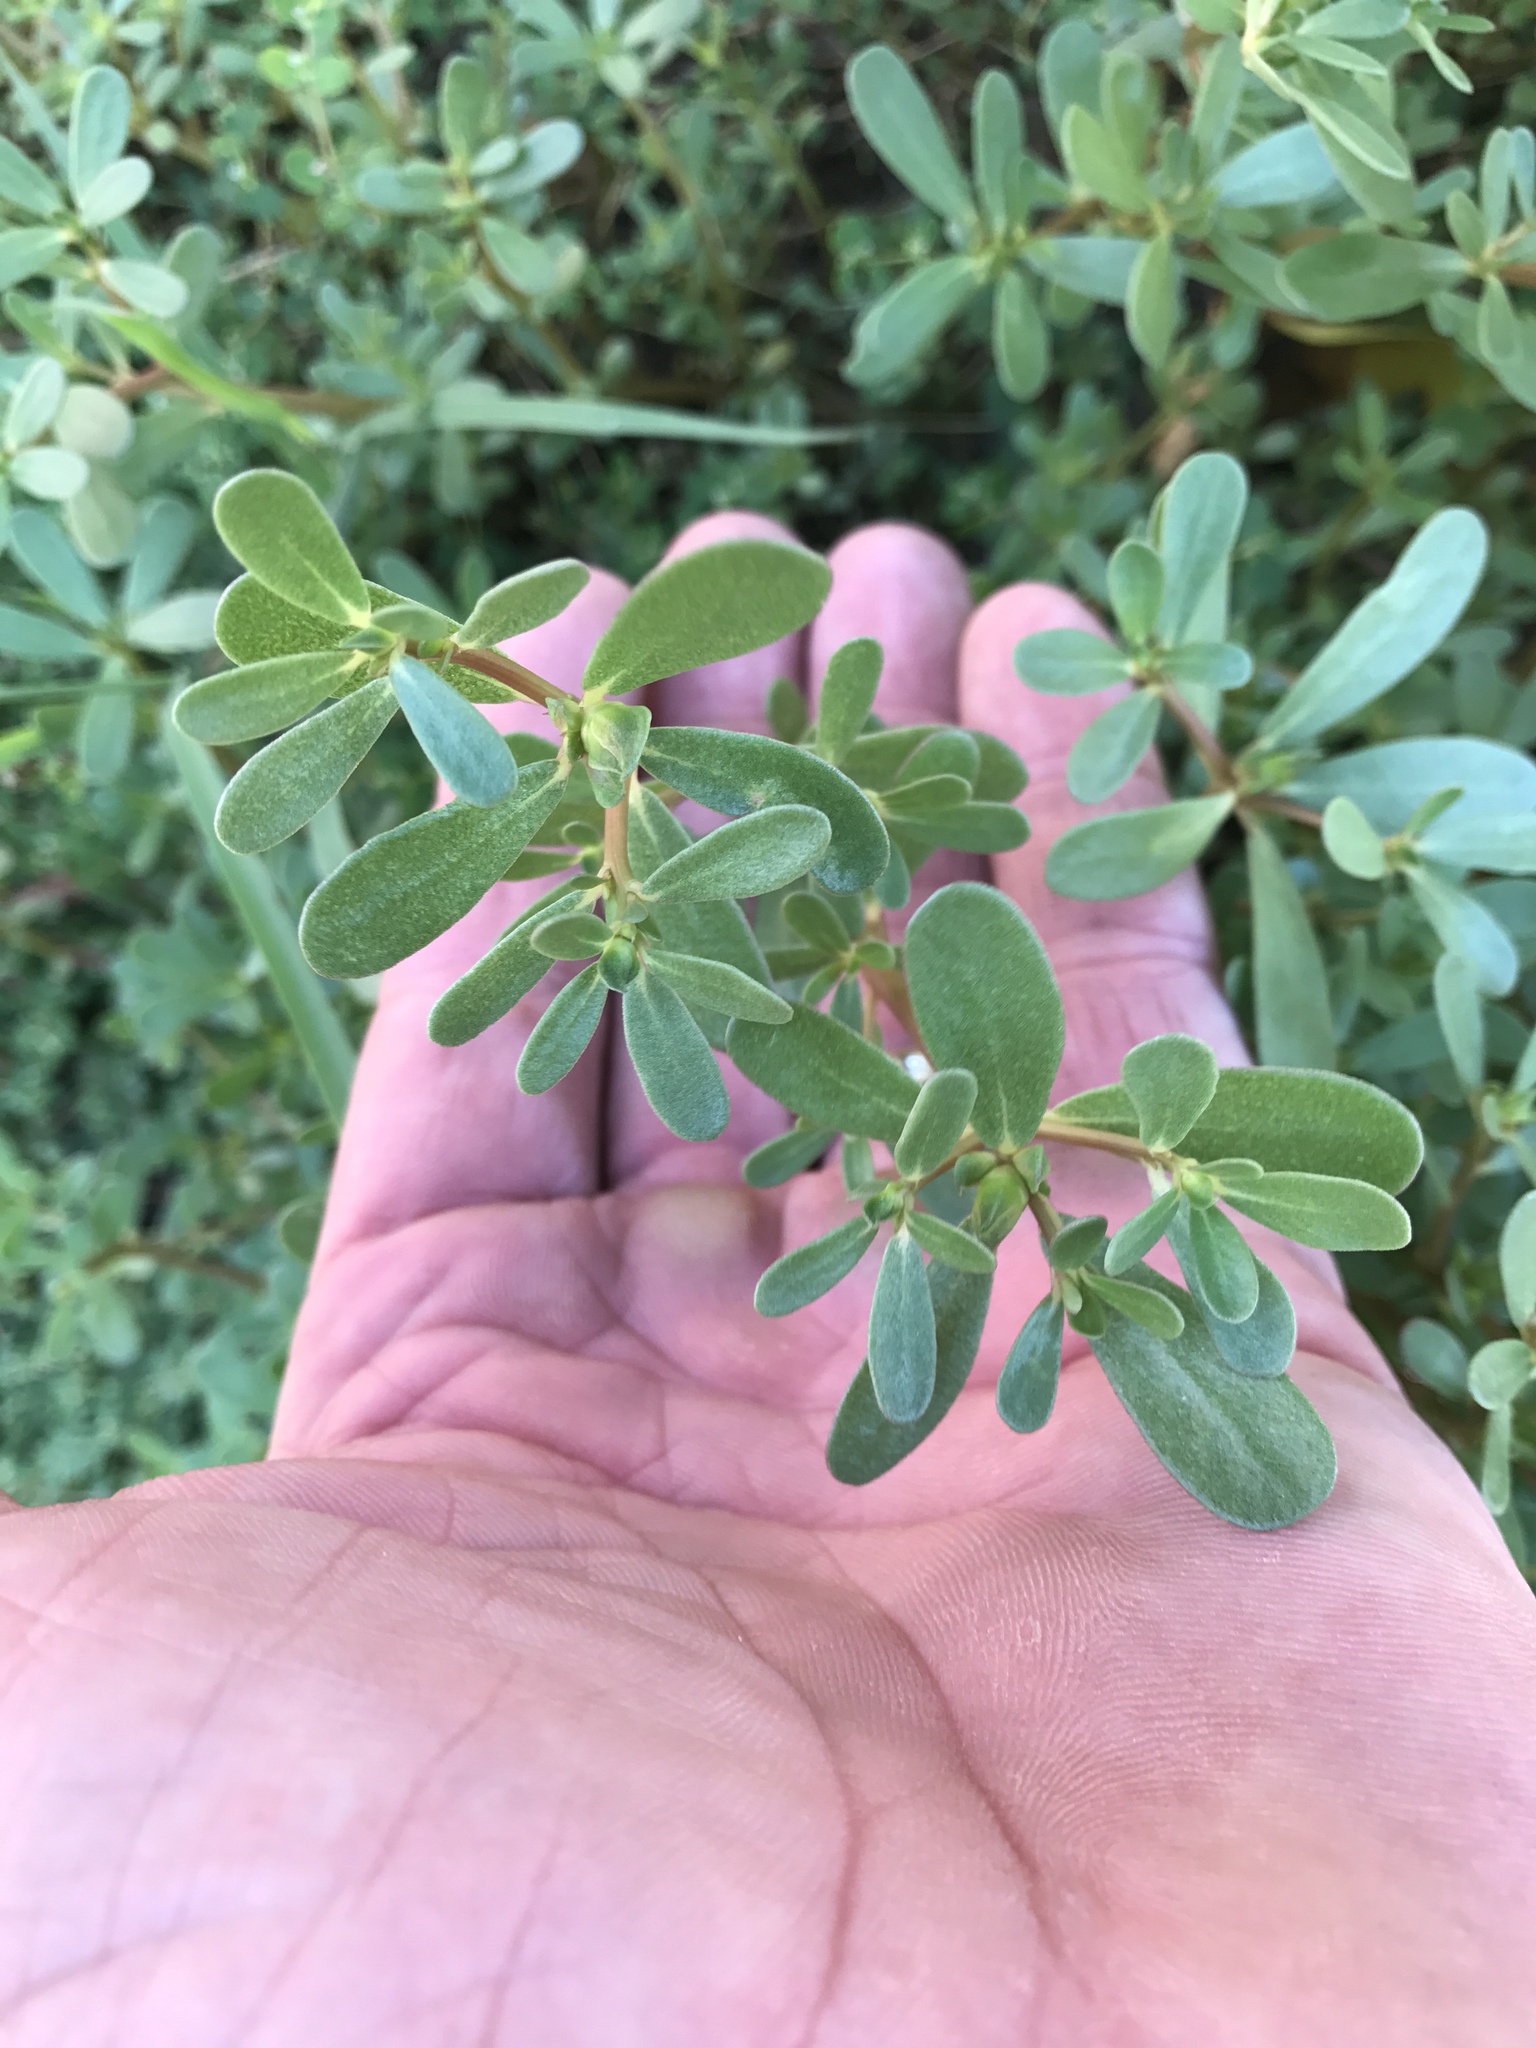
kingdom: Plantae
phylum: Tracheophyta
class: Magnoliopsida
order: Caryophyllales
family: Portulacaceae
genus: Portulaca
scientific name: Portulaca oleracea
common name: Common purslane
